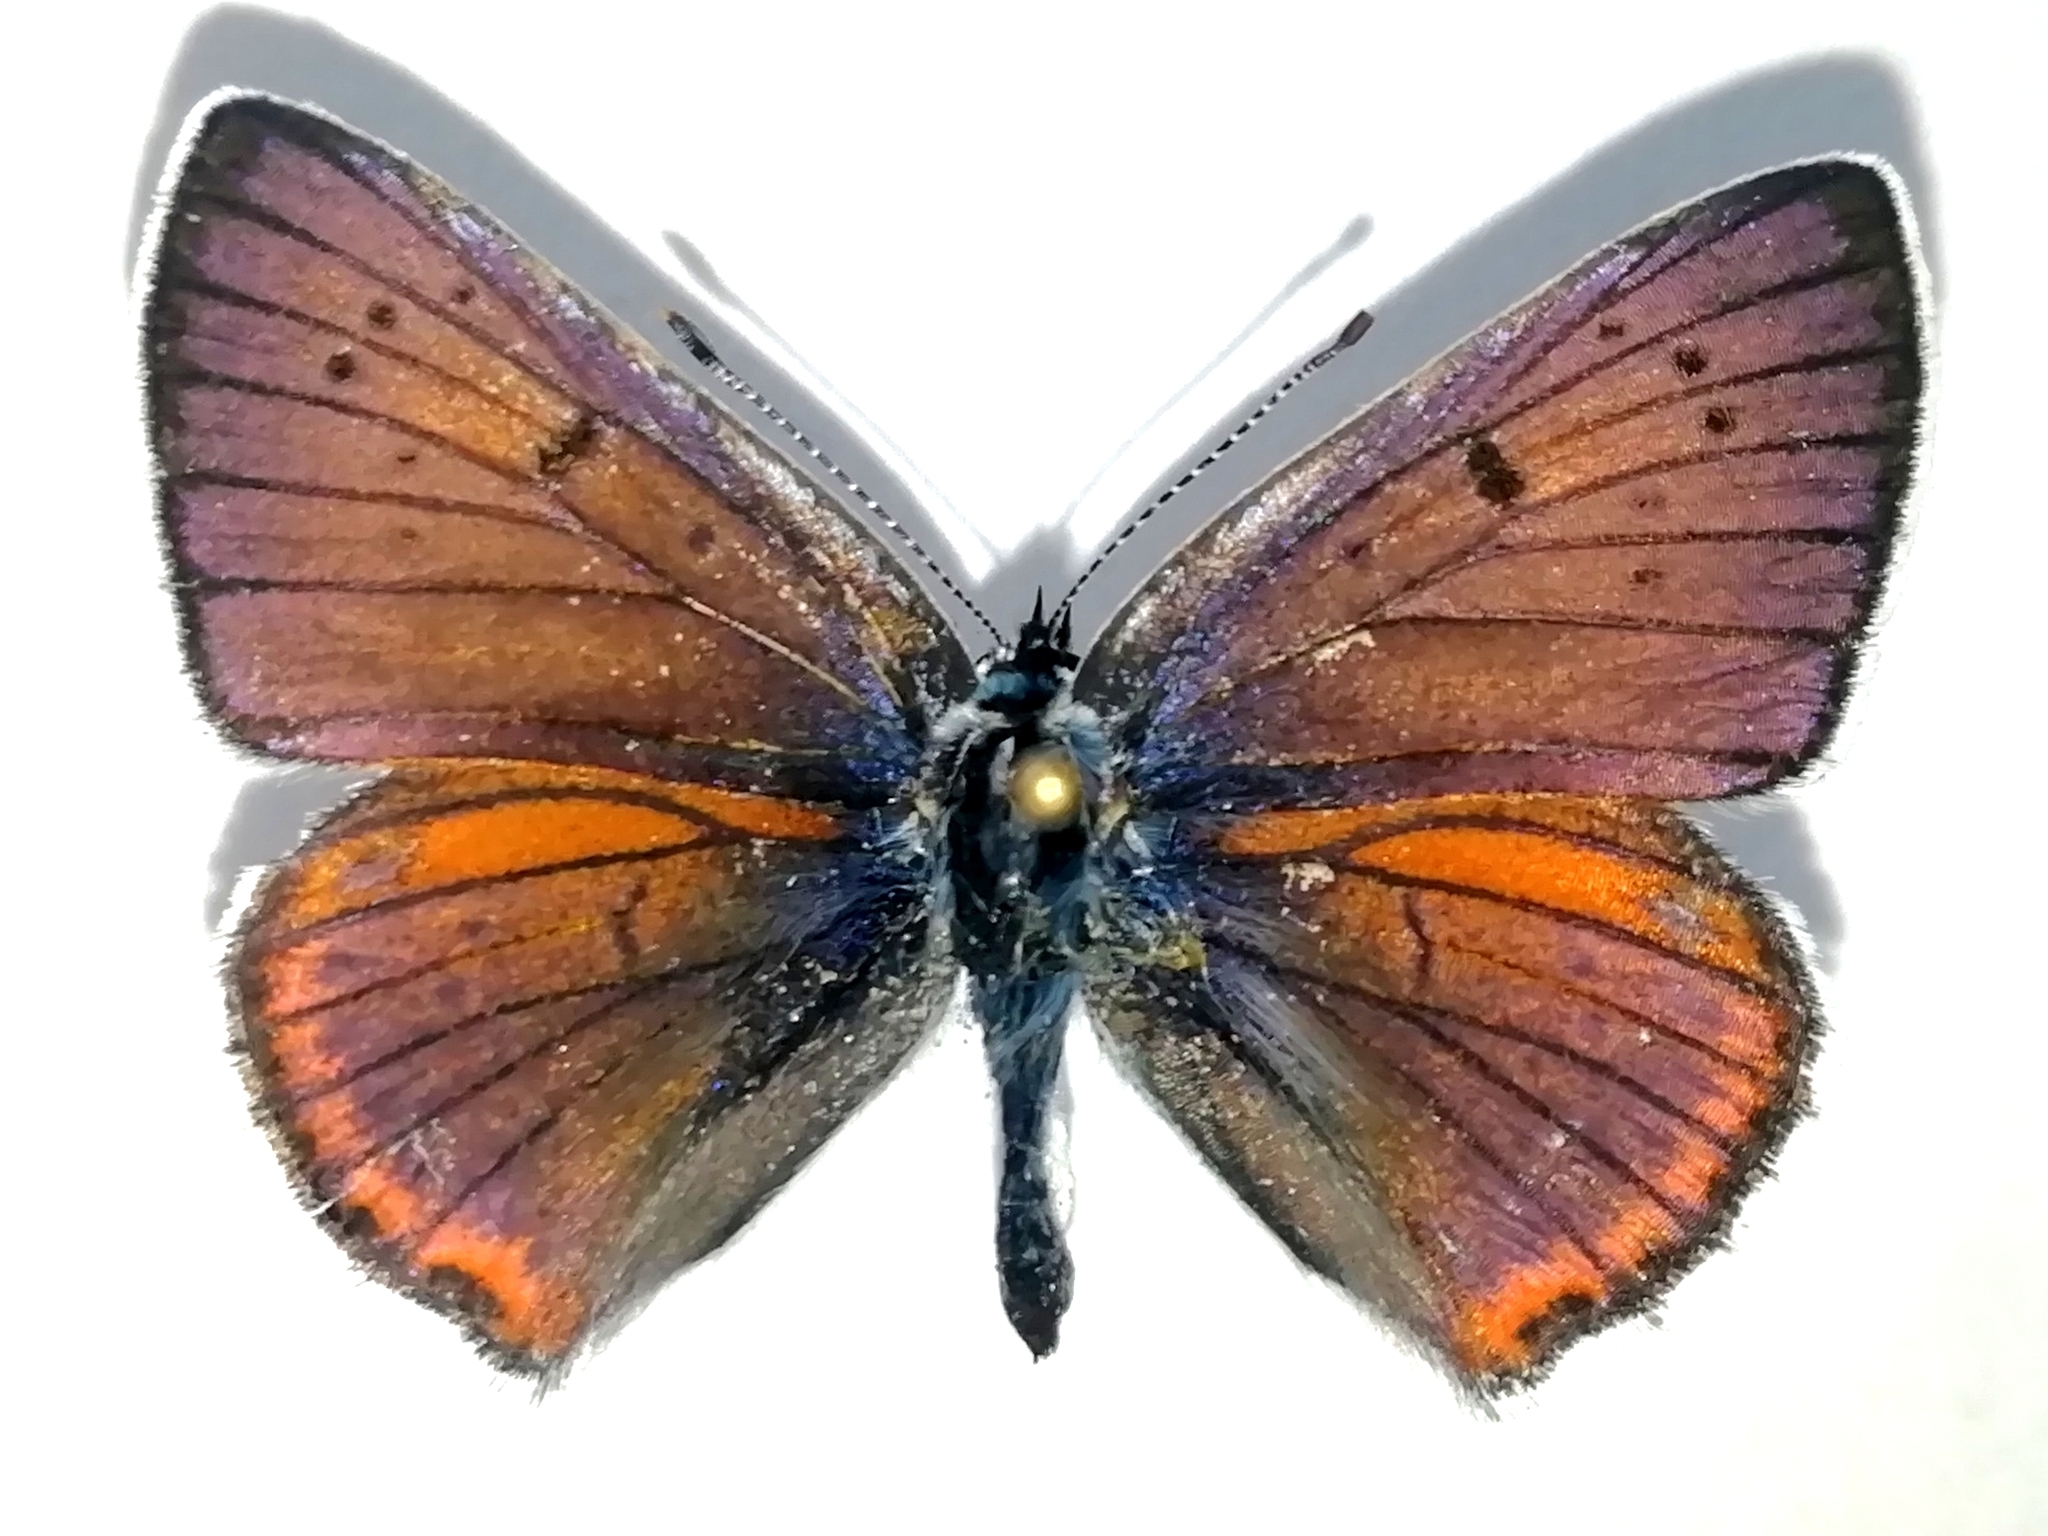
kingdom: Animalia
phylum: Arthropoda
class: Insecta
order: Lepidoptera
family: Lycaenidae
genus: Lycaena
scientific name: Lycaena alciphron
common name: Purple-shot copper
